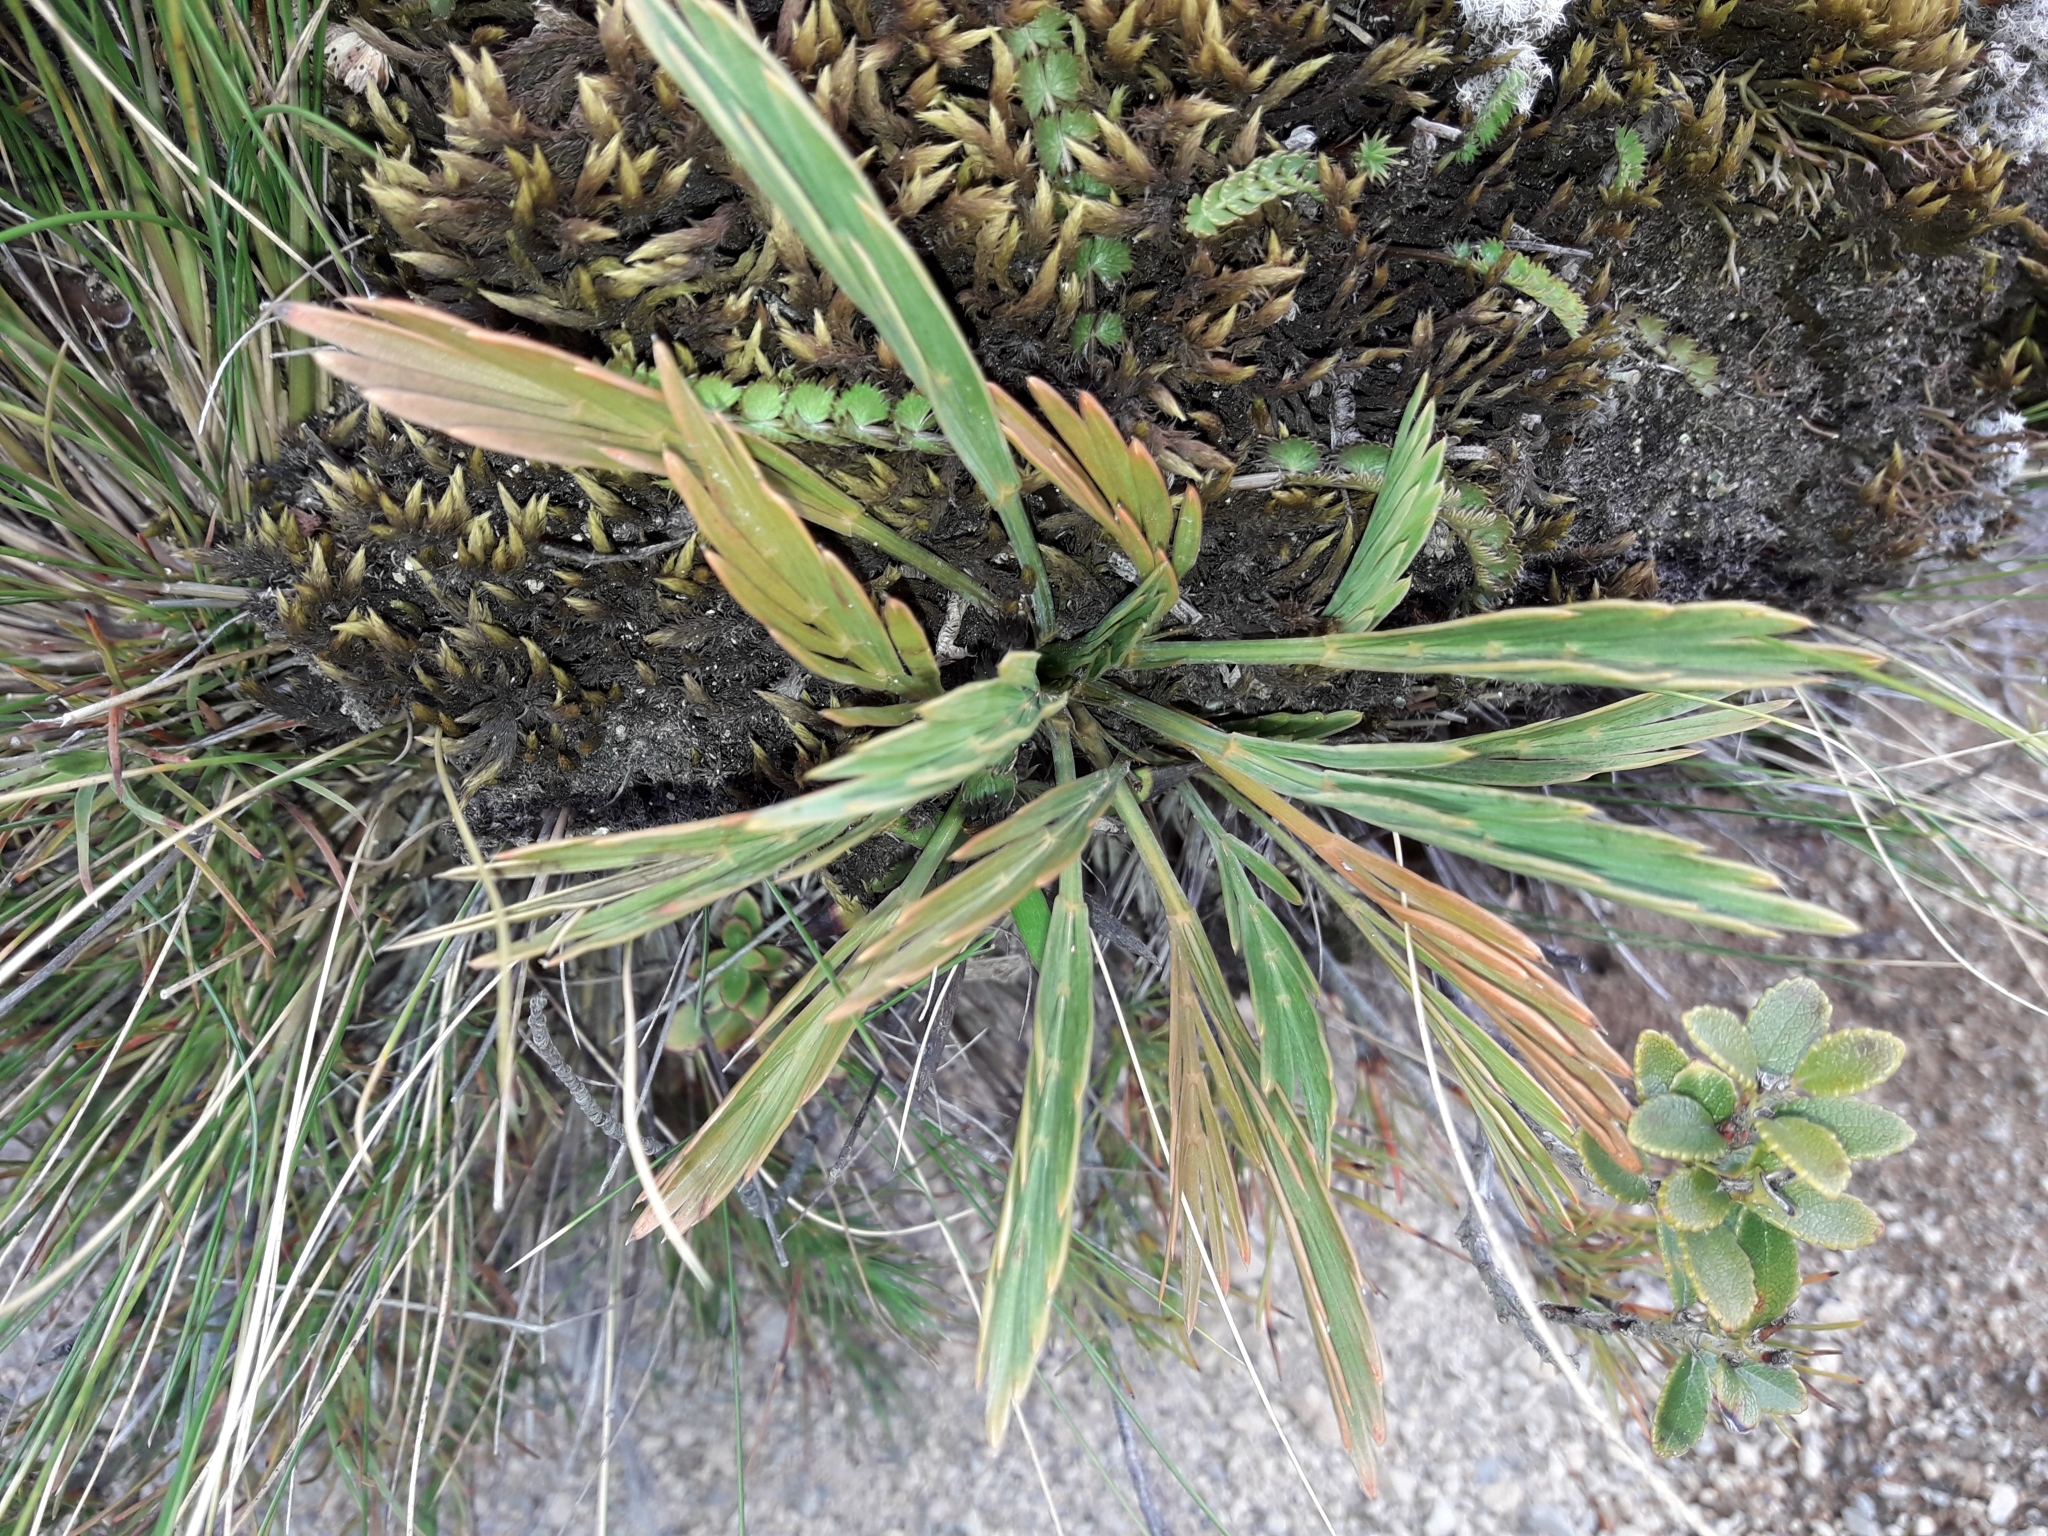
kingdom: Plantae
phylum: Tracheophyta
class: Magnoliopsida
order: Apiales
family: Apiaceae
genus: Aciphylla
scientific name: Aciphylla monroi
